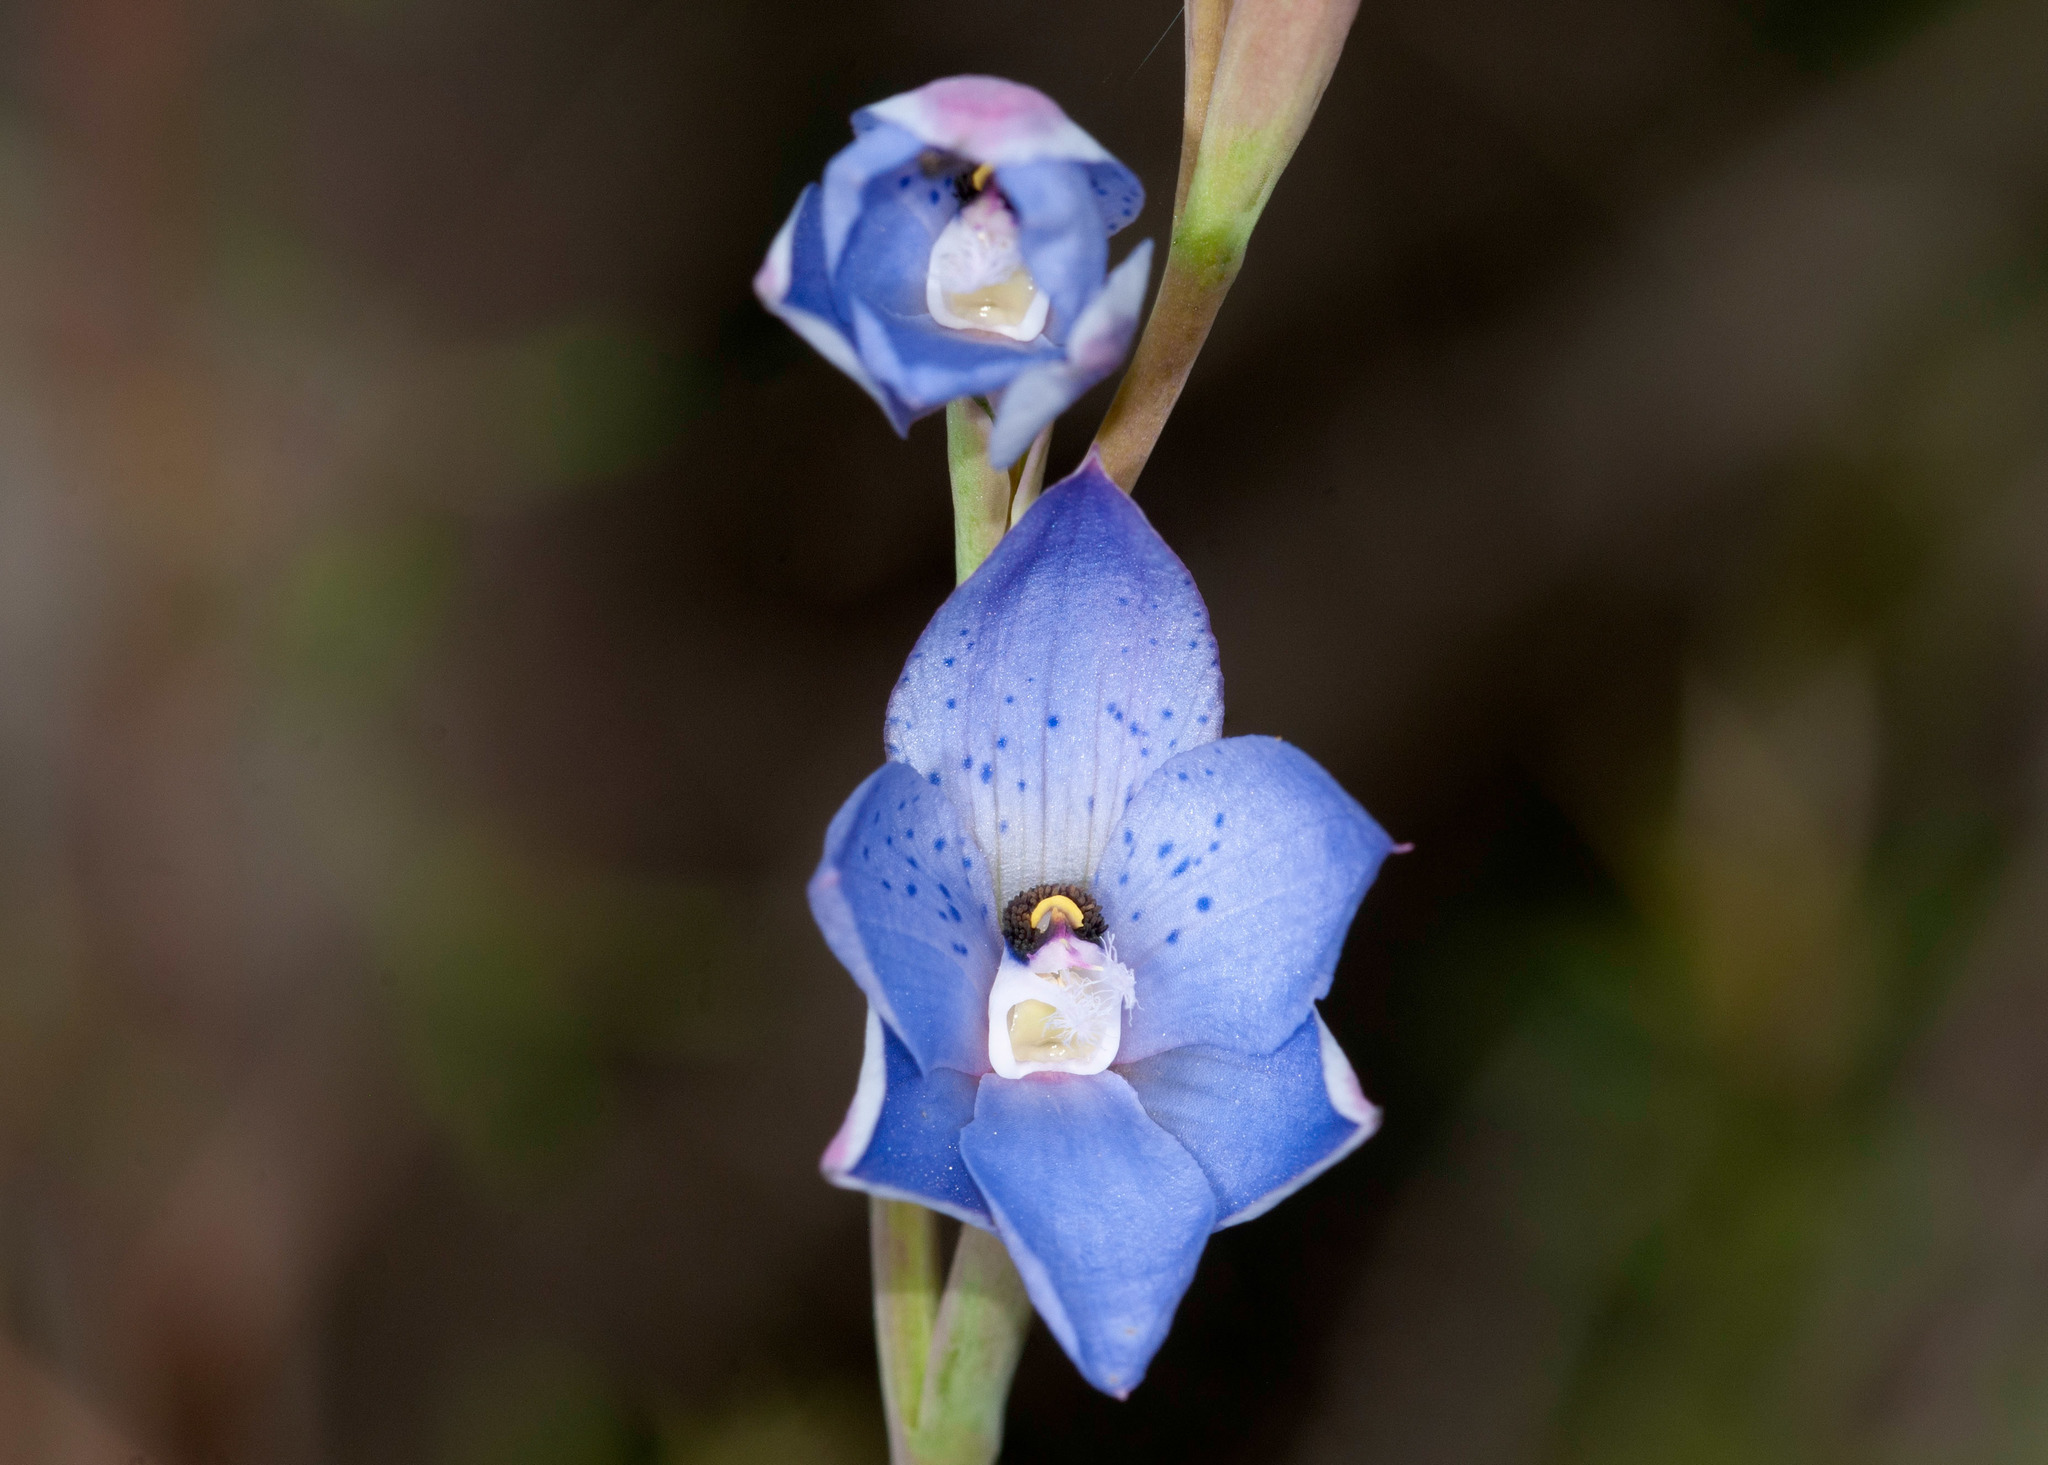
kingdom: Plantae
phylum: Tracheophyta
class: Liliopsida
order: Asparagales
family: Orchidaceae
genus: Thelymitra
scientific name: Thelymitra ixioides
